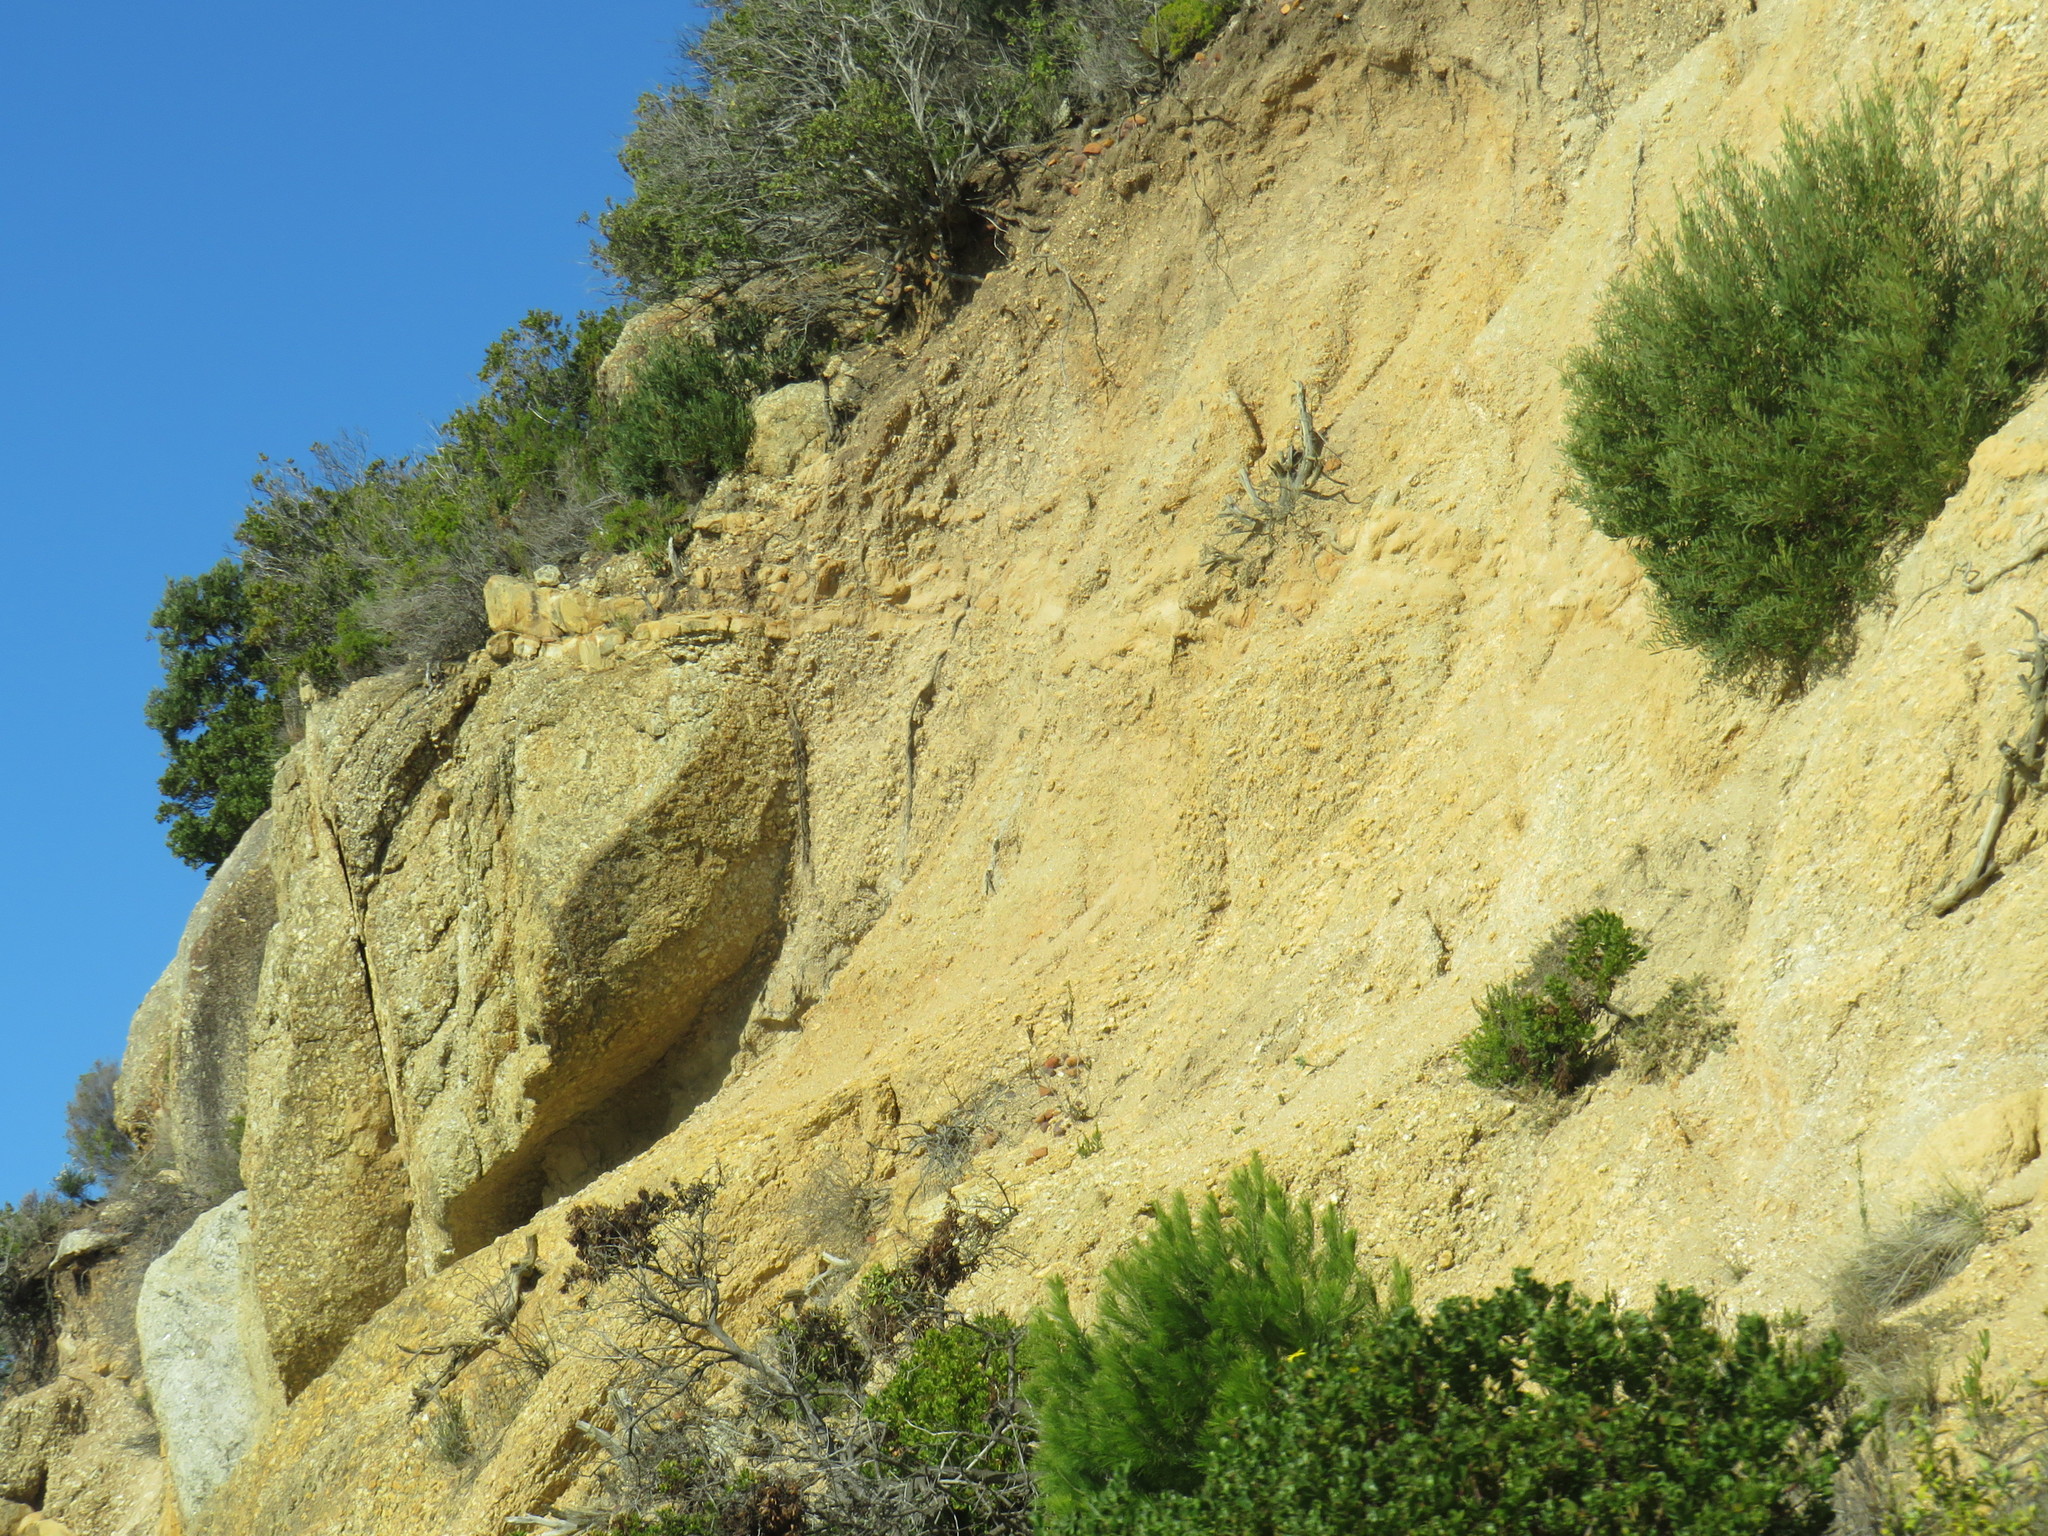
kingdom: Plantae
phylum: Tracheophyta
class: Pinopsida
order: Pinales
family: Pinaceae
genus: Pinus
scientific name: Pinus halepensis
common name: Aleppo pine
